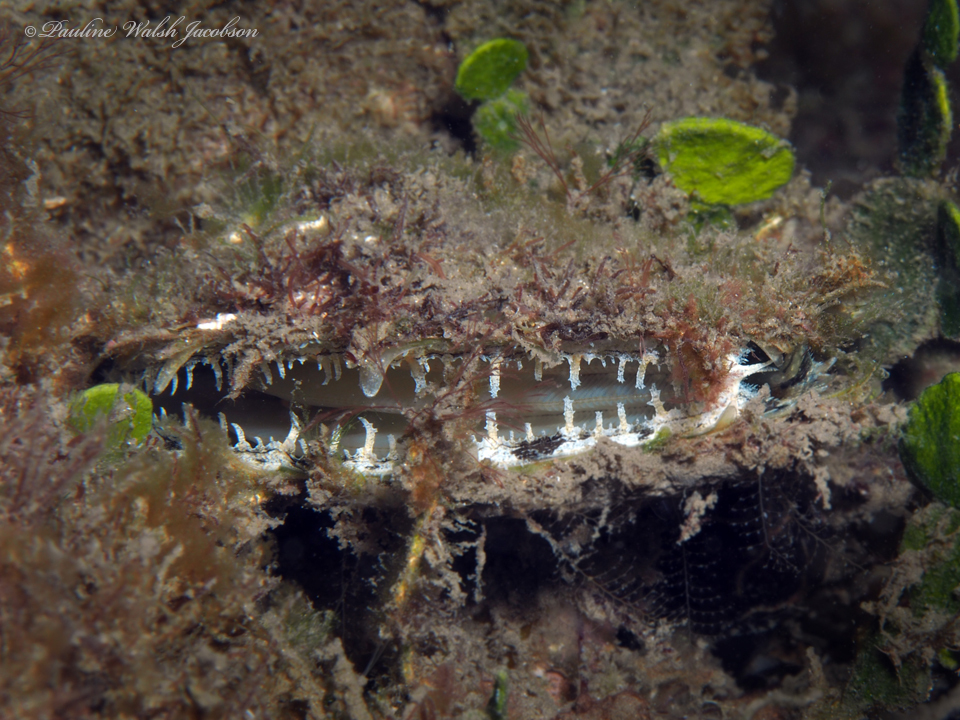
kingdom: Animalia
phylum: Mollusca
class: Bivalvia
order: Ostreida
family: Margaritidae
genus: Pinctada
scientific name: Pinctada imbricata
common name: Atlantic pearl-oyster
